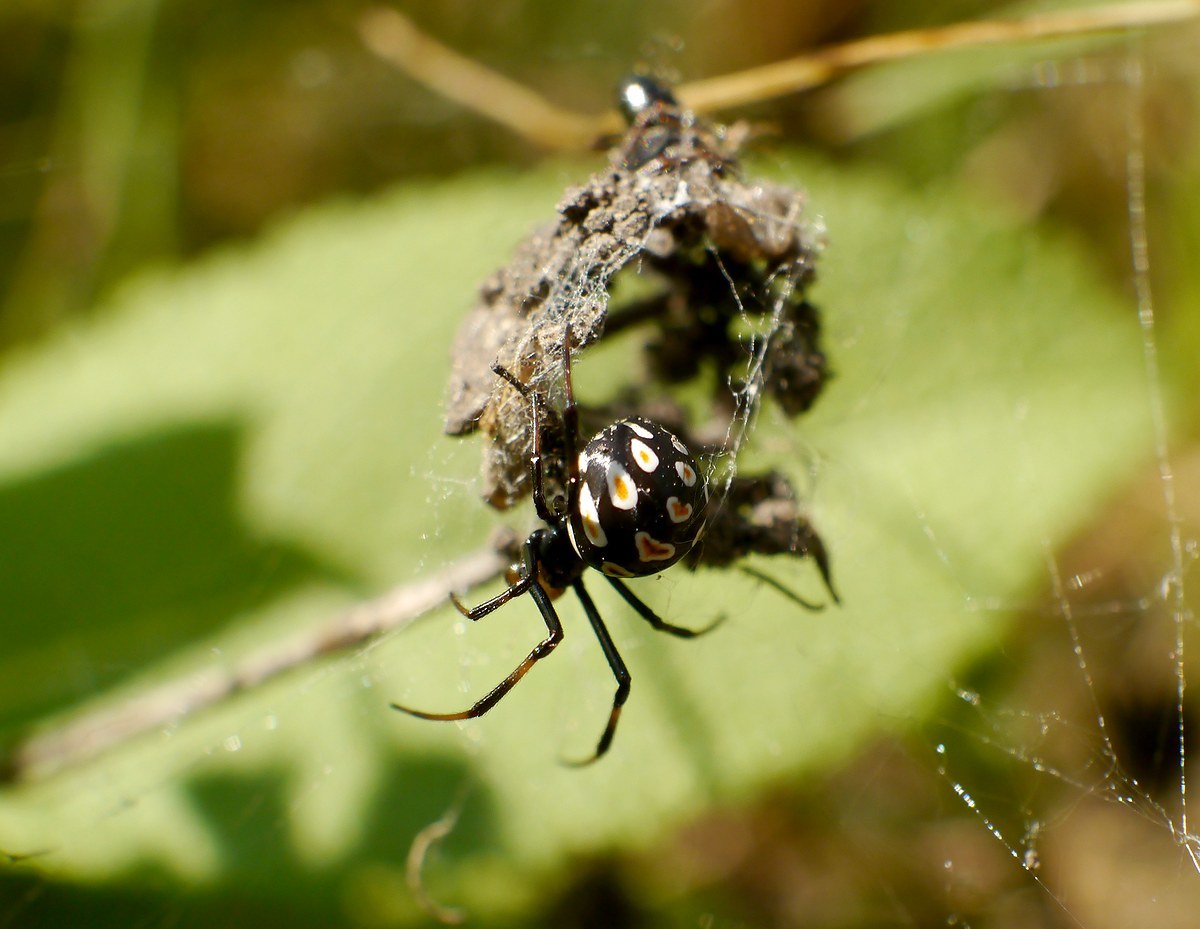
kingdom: Animalia
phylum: Arthropoda
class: Arachnida
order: Araneae
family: Theridiidae
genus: Latrodectus
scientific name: Latrodectus tredecimguttatus
